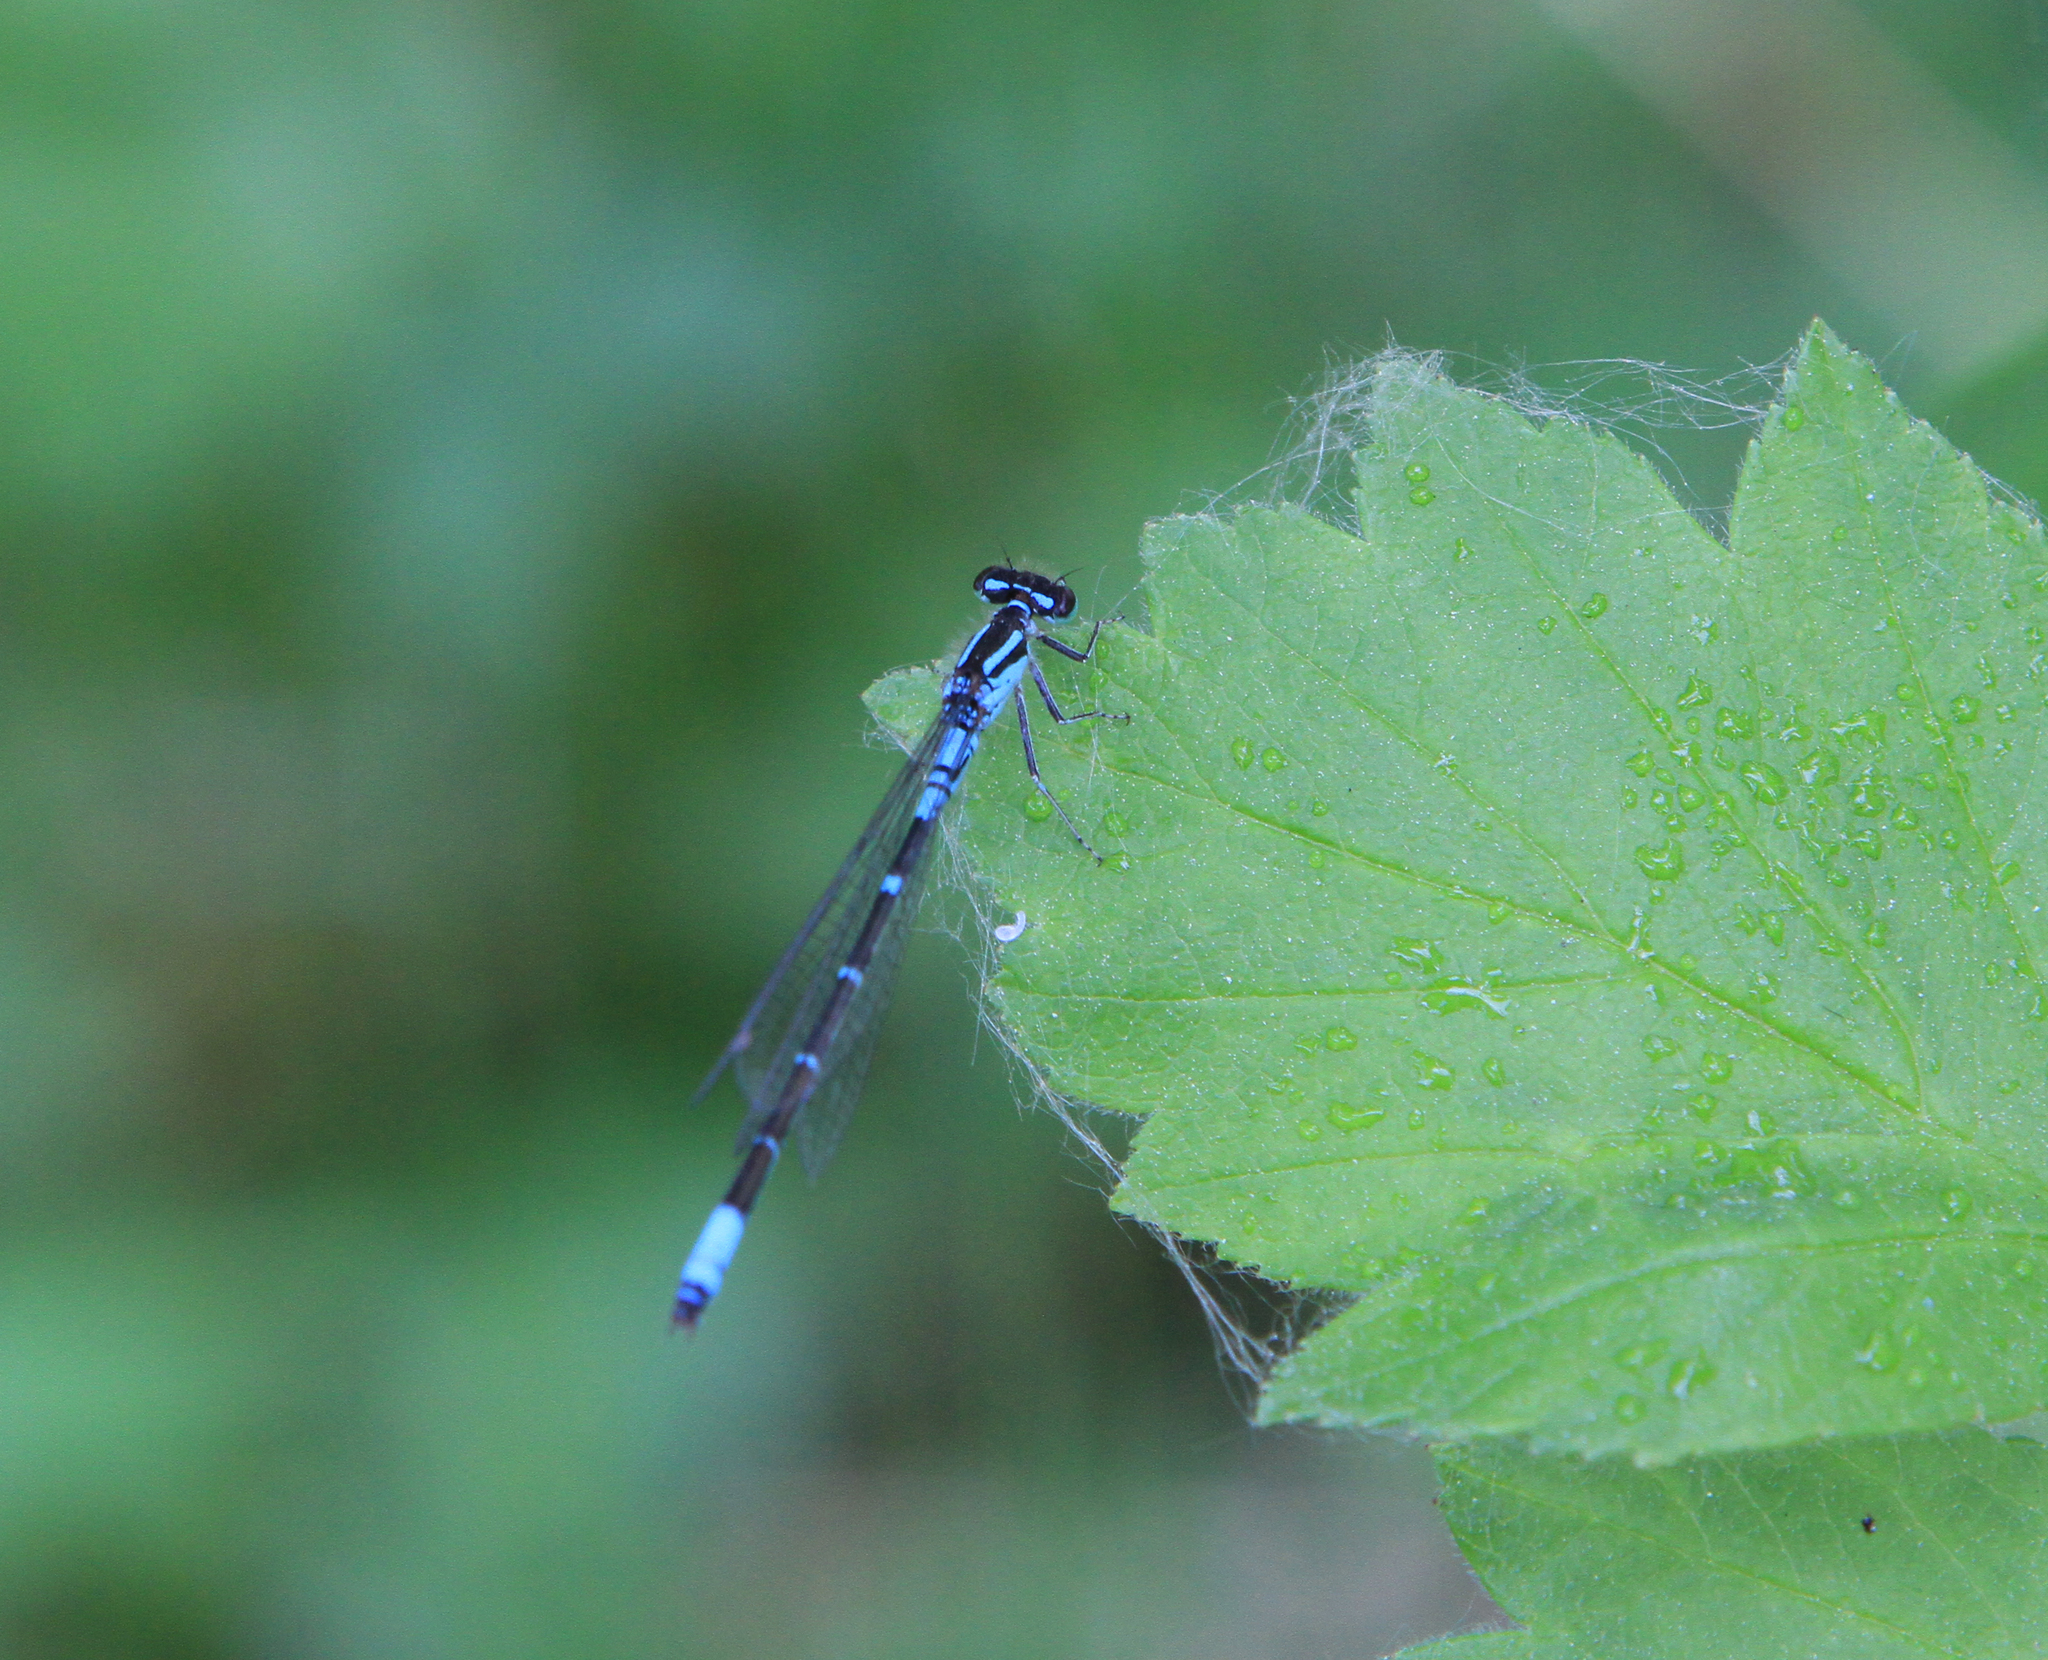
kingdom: Animalia
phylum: Arthropoda
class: Insecta
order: Odonata
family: Coenagrionidae
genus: Coenagrion
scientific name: Coenagrion glaciale
